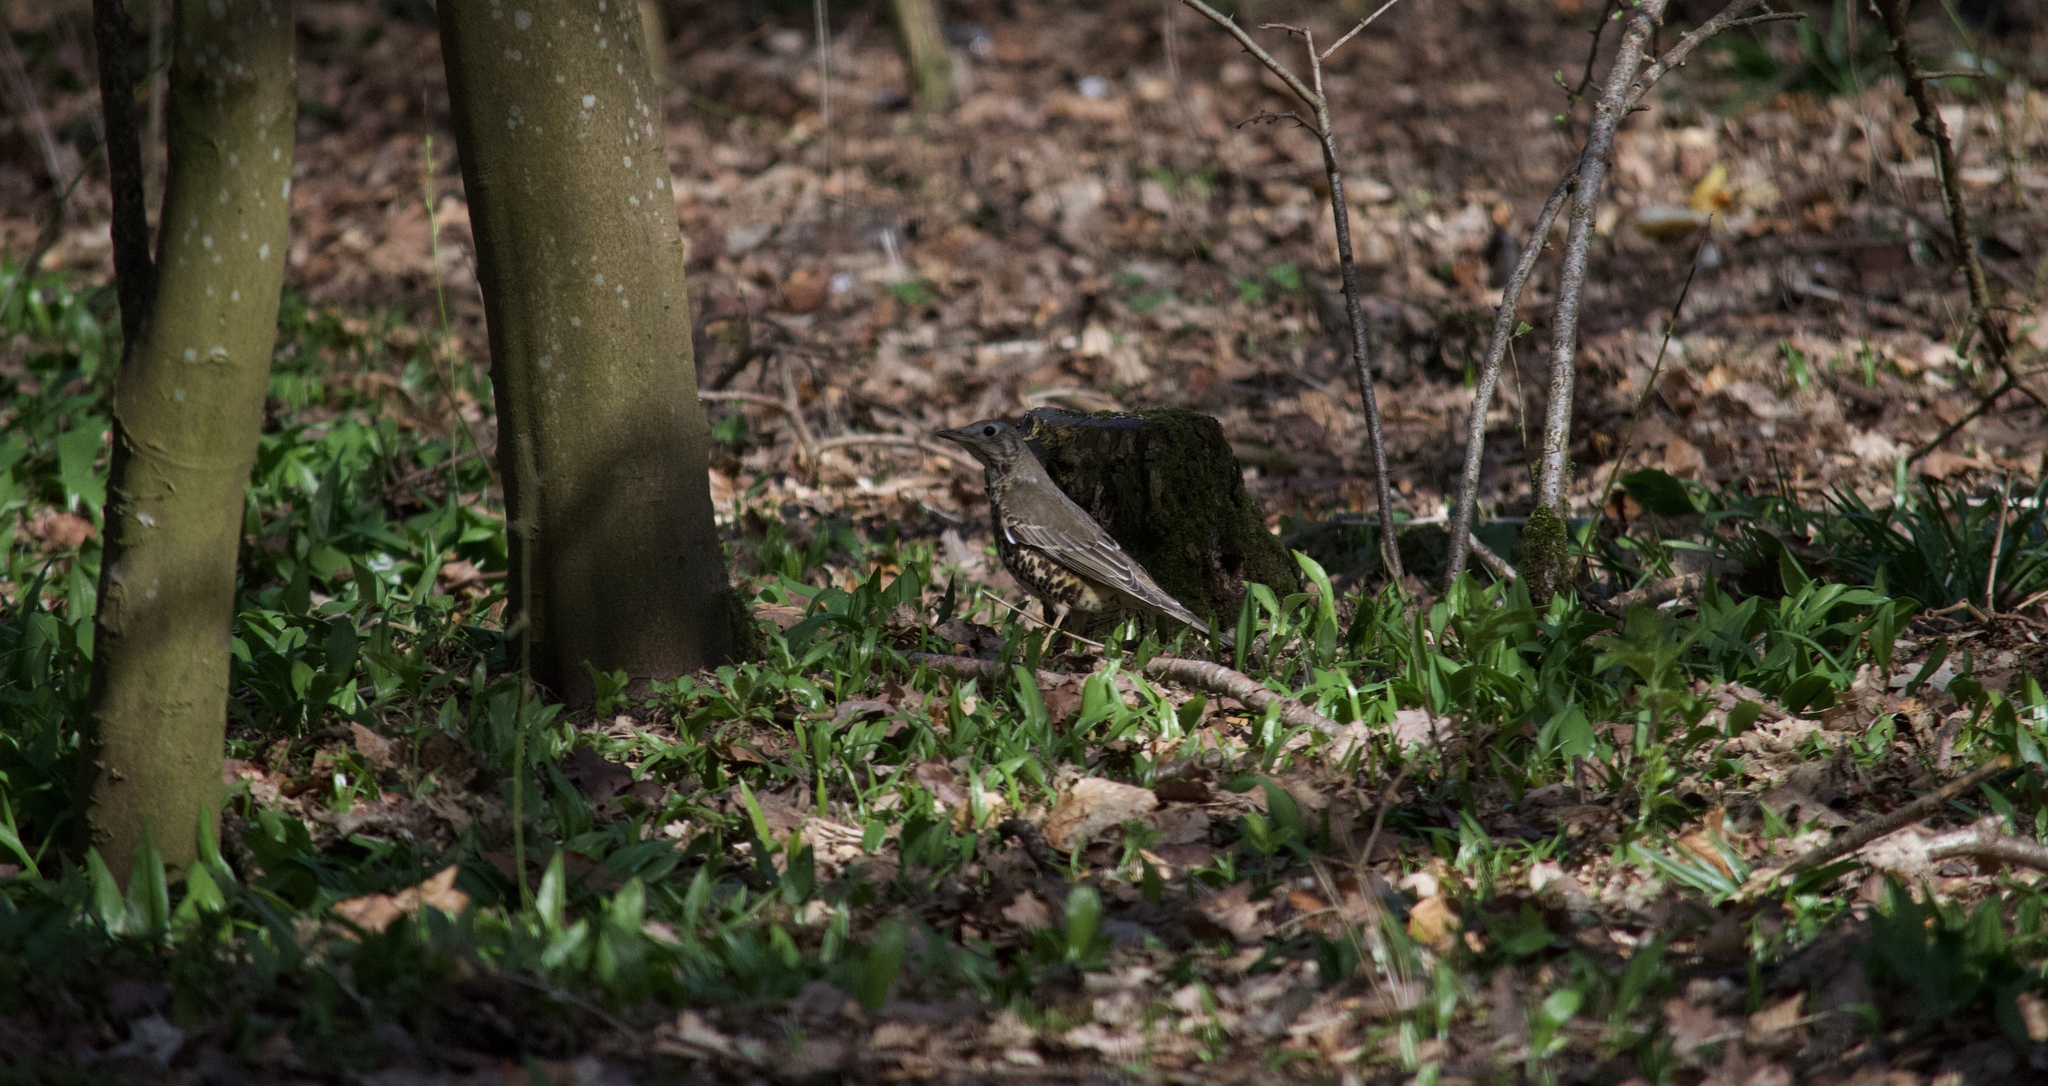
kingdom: Animalia
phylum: Chordata
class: Aves
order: Passeriformes
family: Turdidae
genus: Turdus
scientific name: Turdus viscivorus
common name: Mistle thrush
